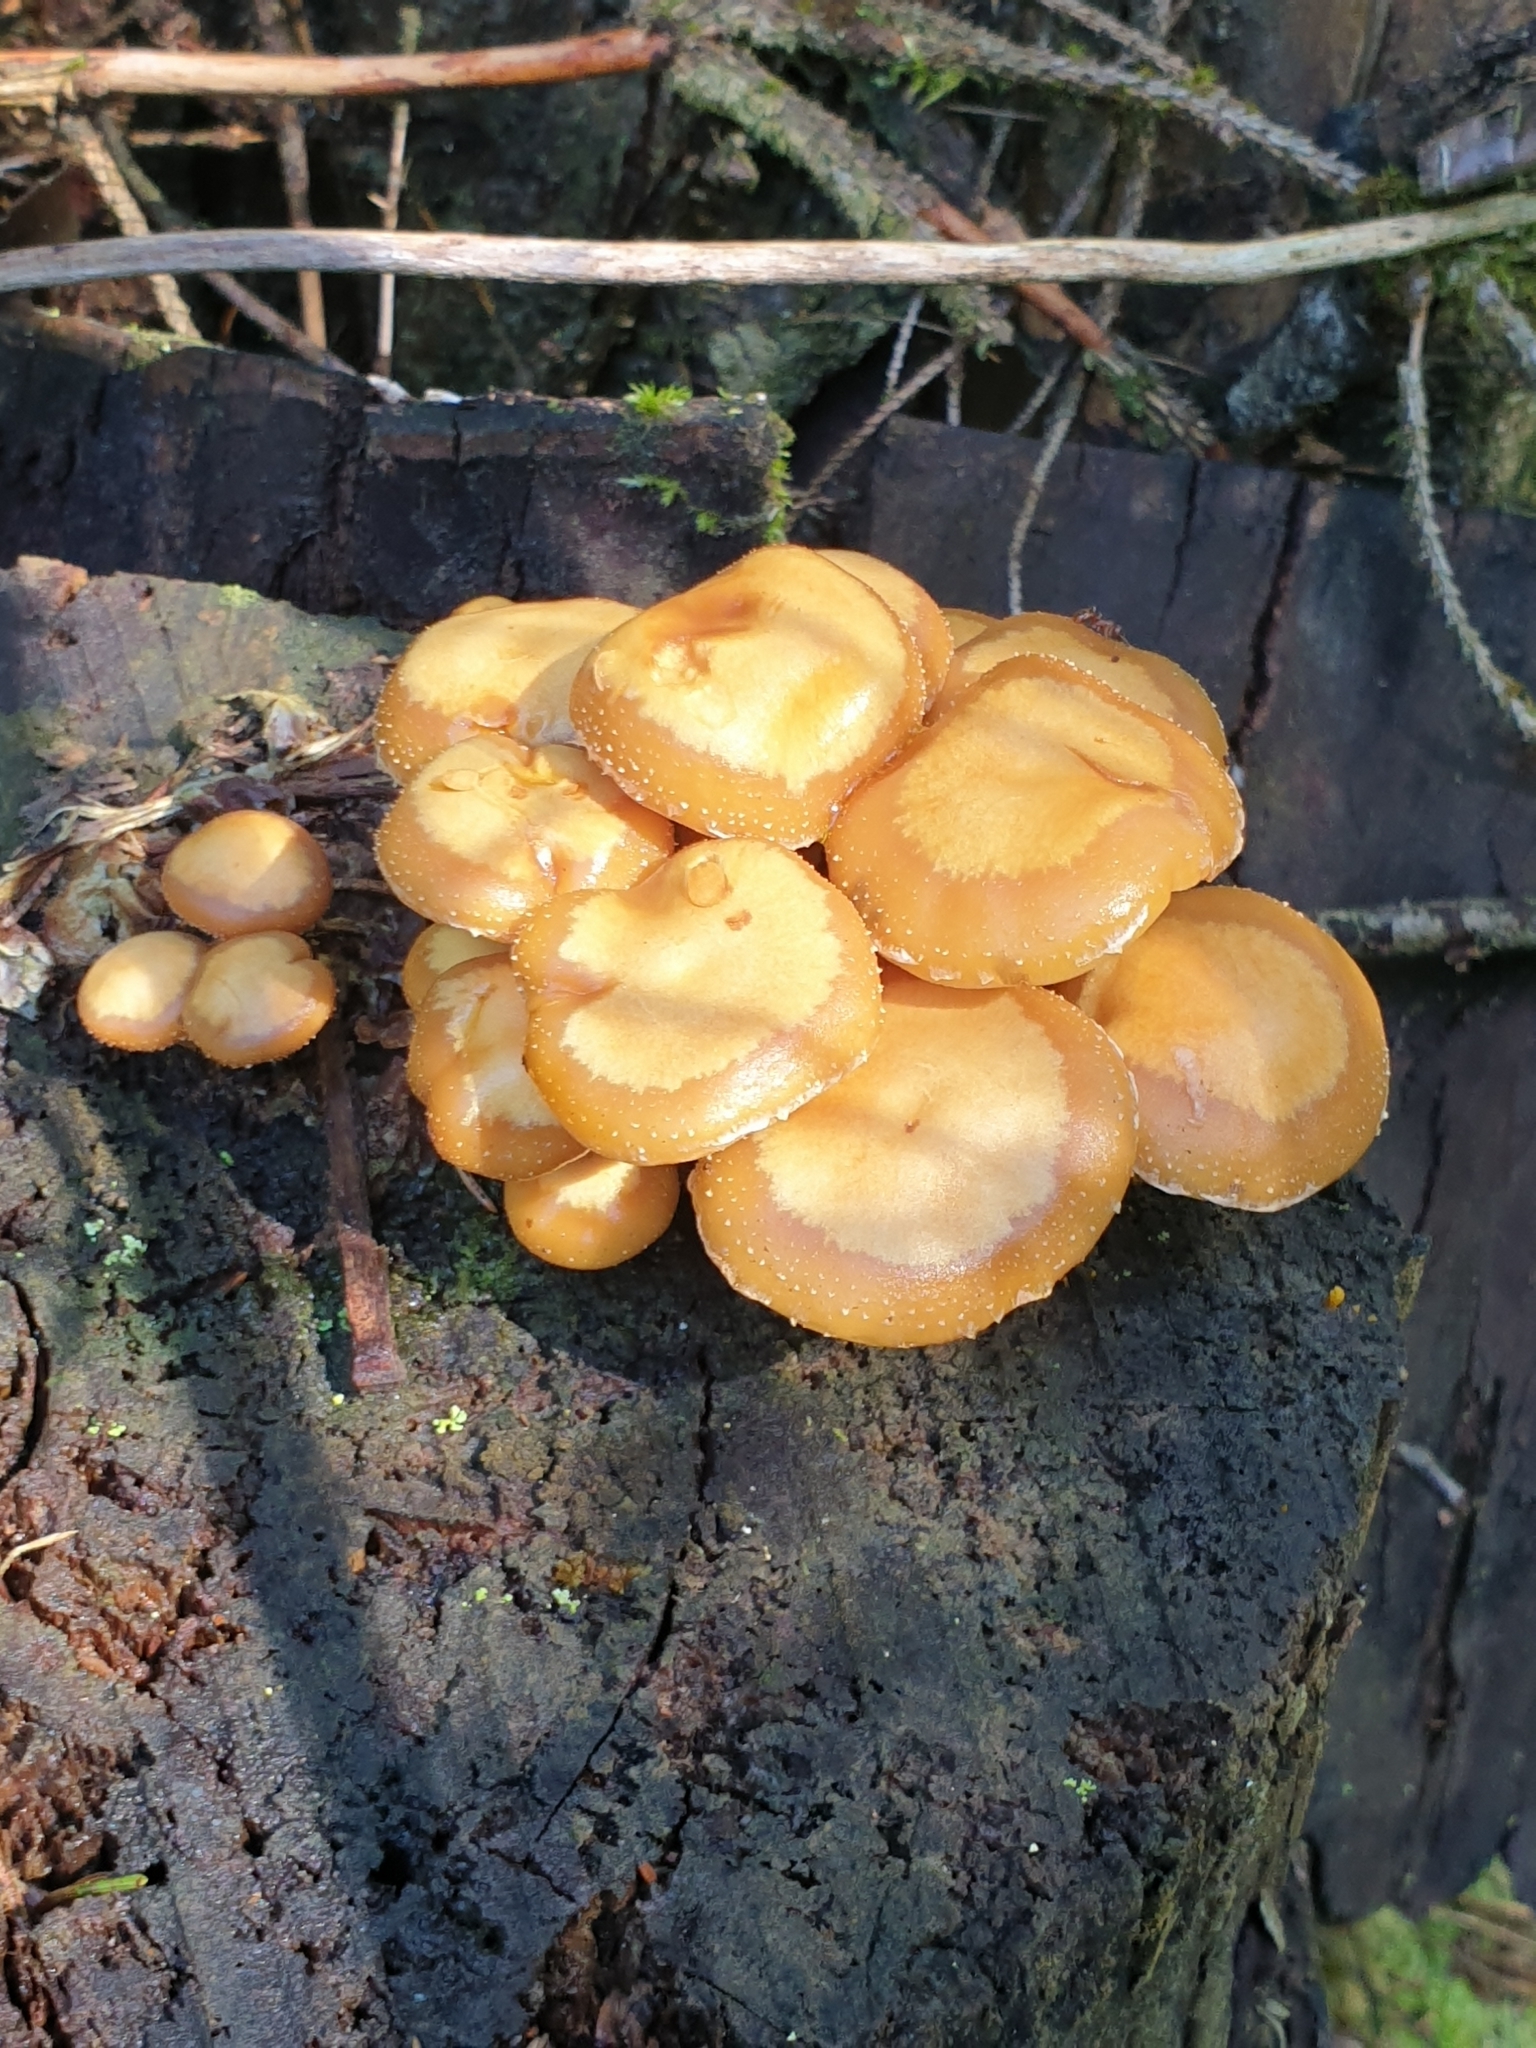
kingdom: Fungi
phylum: Basidiomycota
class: Agaricomycetes
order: Agaricales
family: Strophariaceae
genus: Kuehneromyces
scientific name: Kuehneromyces mutabilis
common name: Sheathed woodtuft
